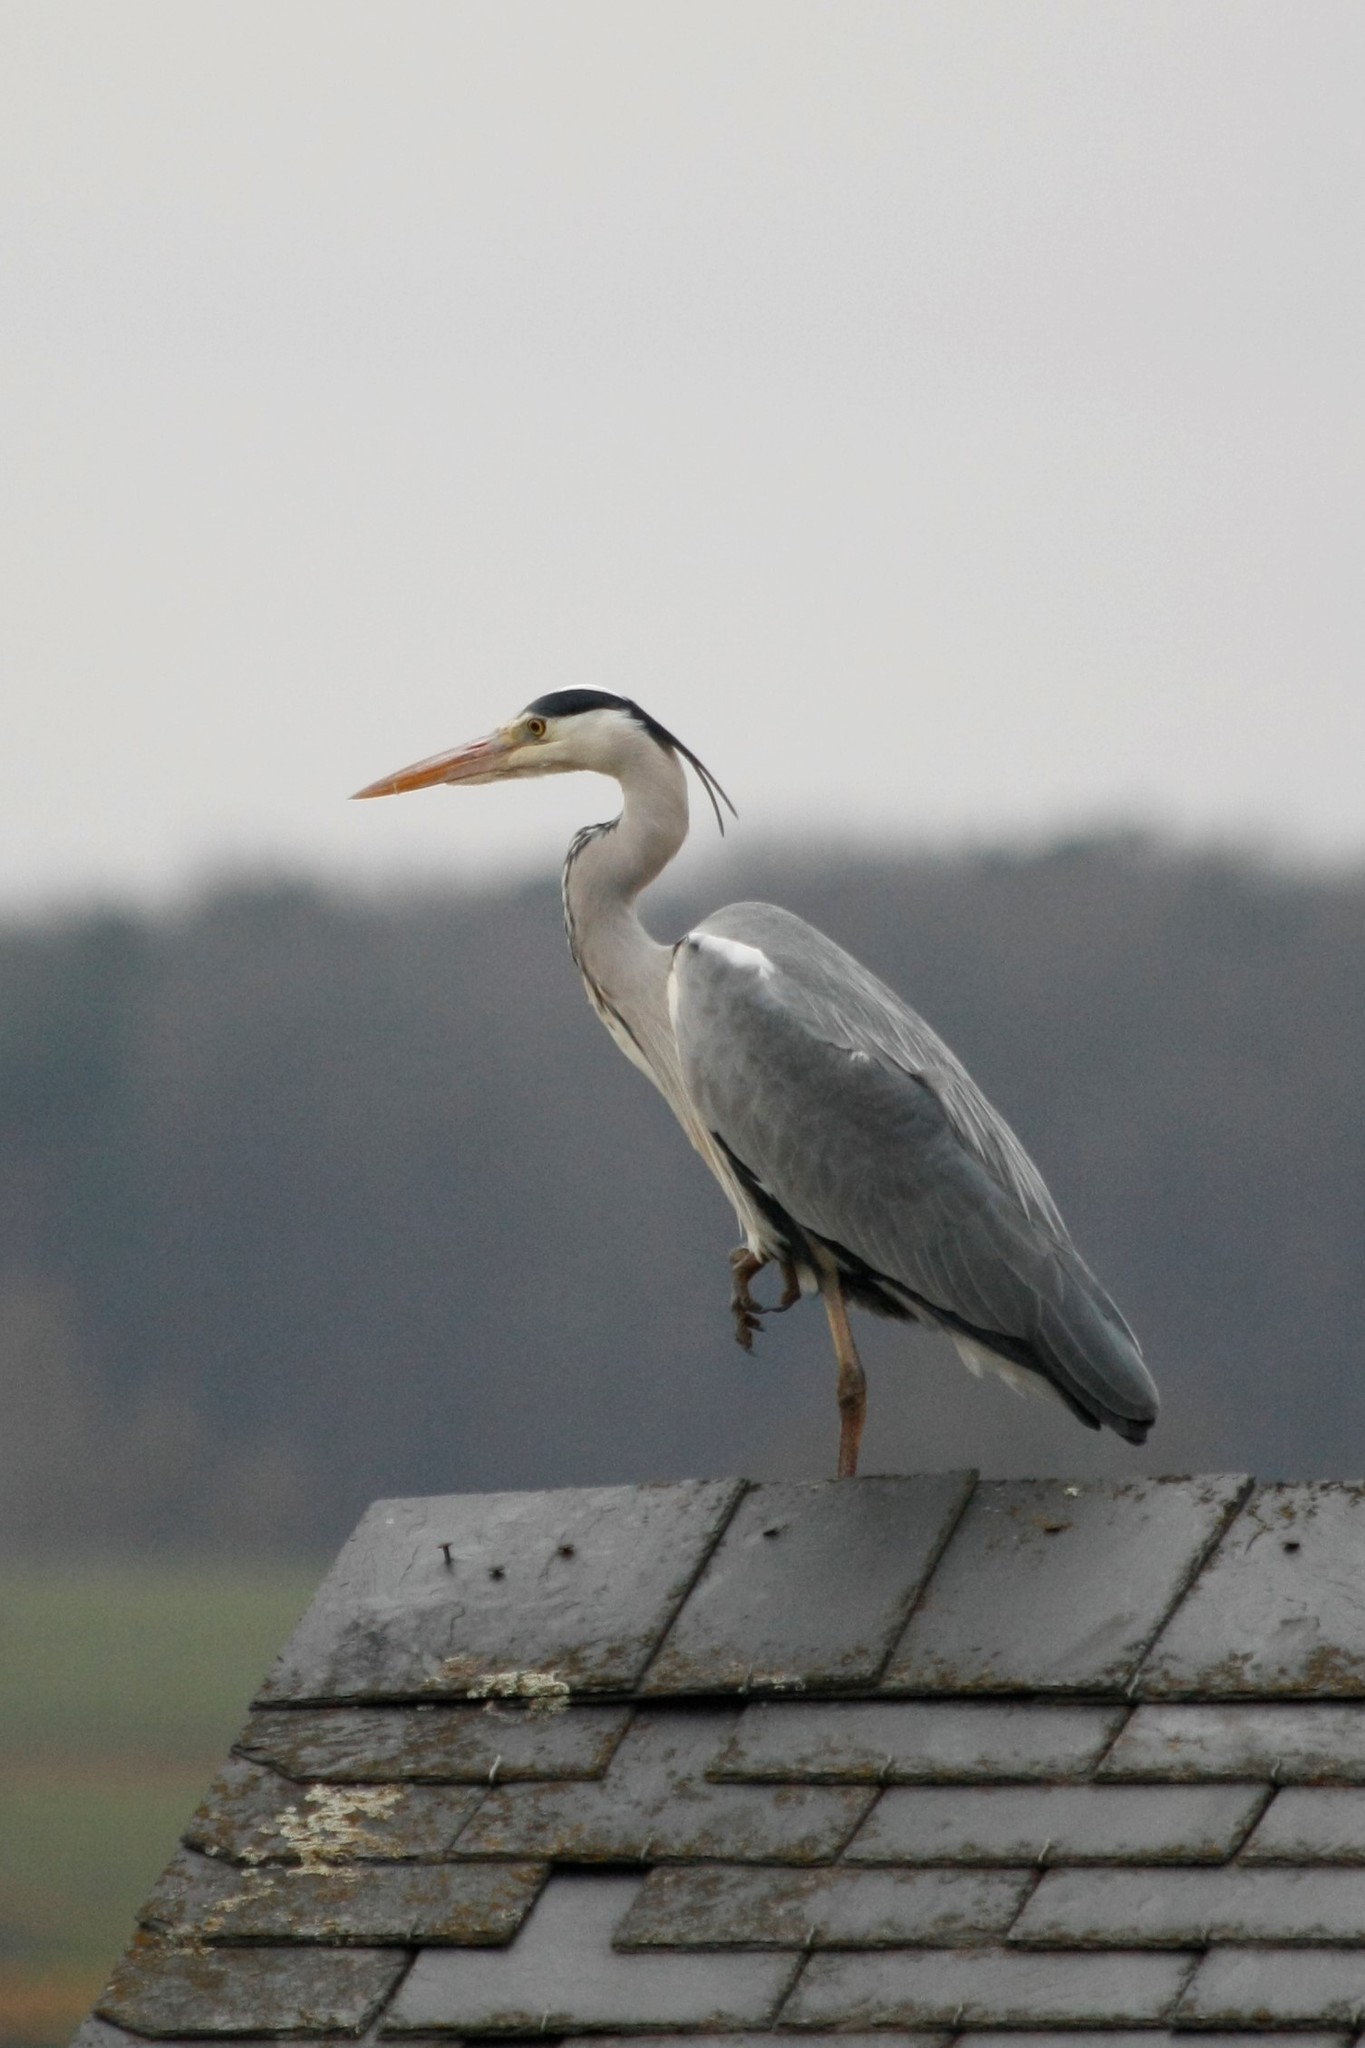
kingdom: Animalia
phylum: Chordata
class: Aves
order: Pelecaniformes
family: Ardeidae
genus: Ardea
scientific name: Ardea cinerea
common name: Grey heron
